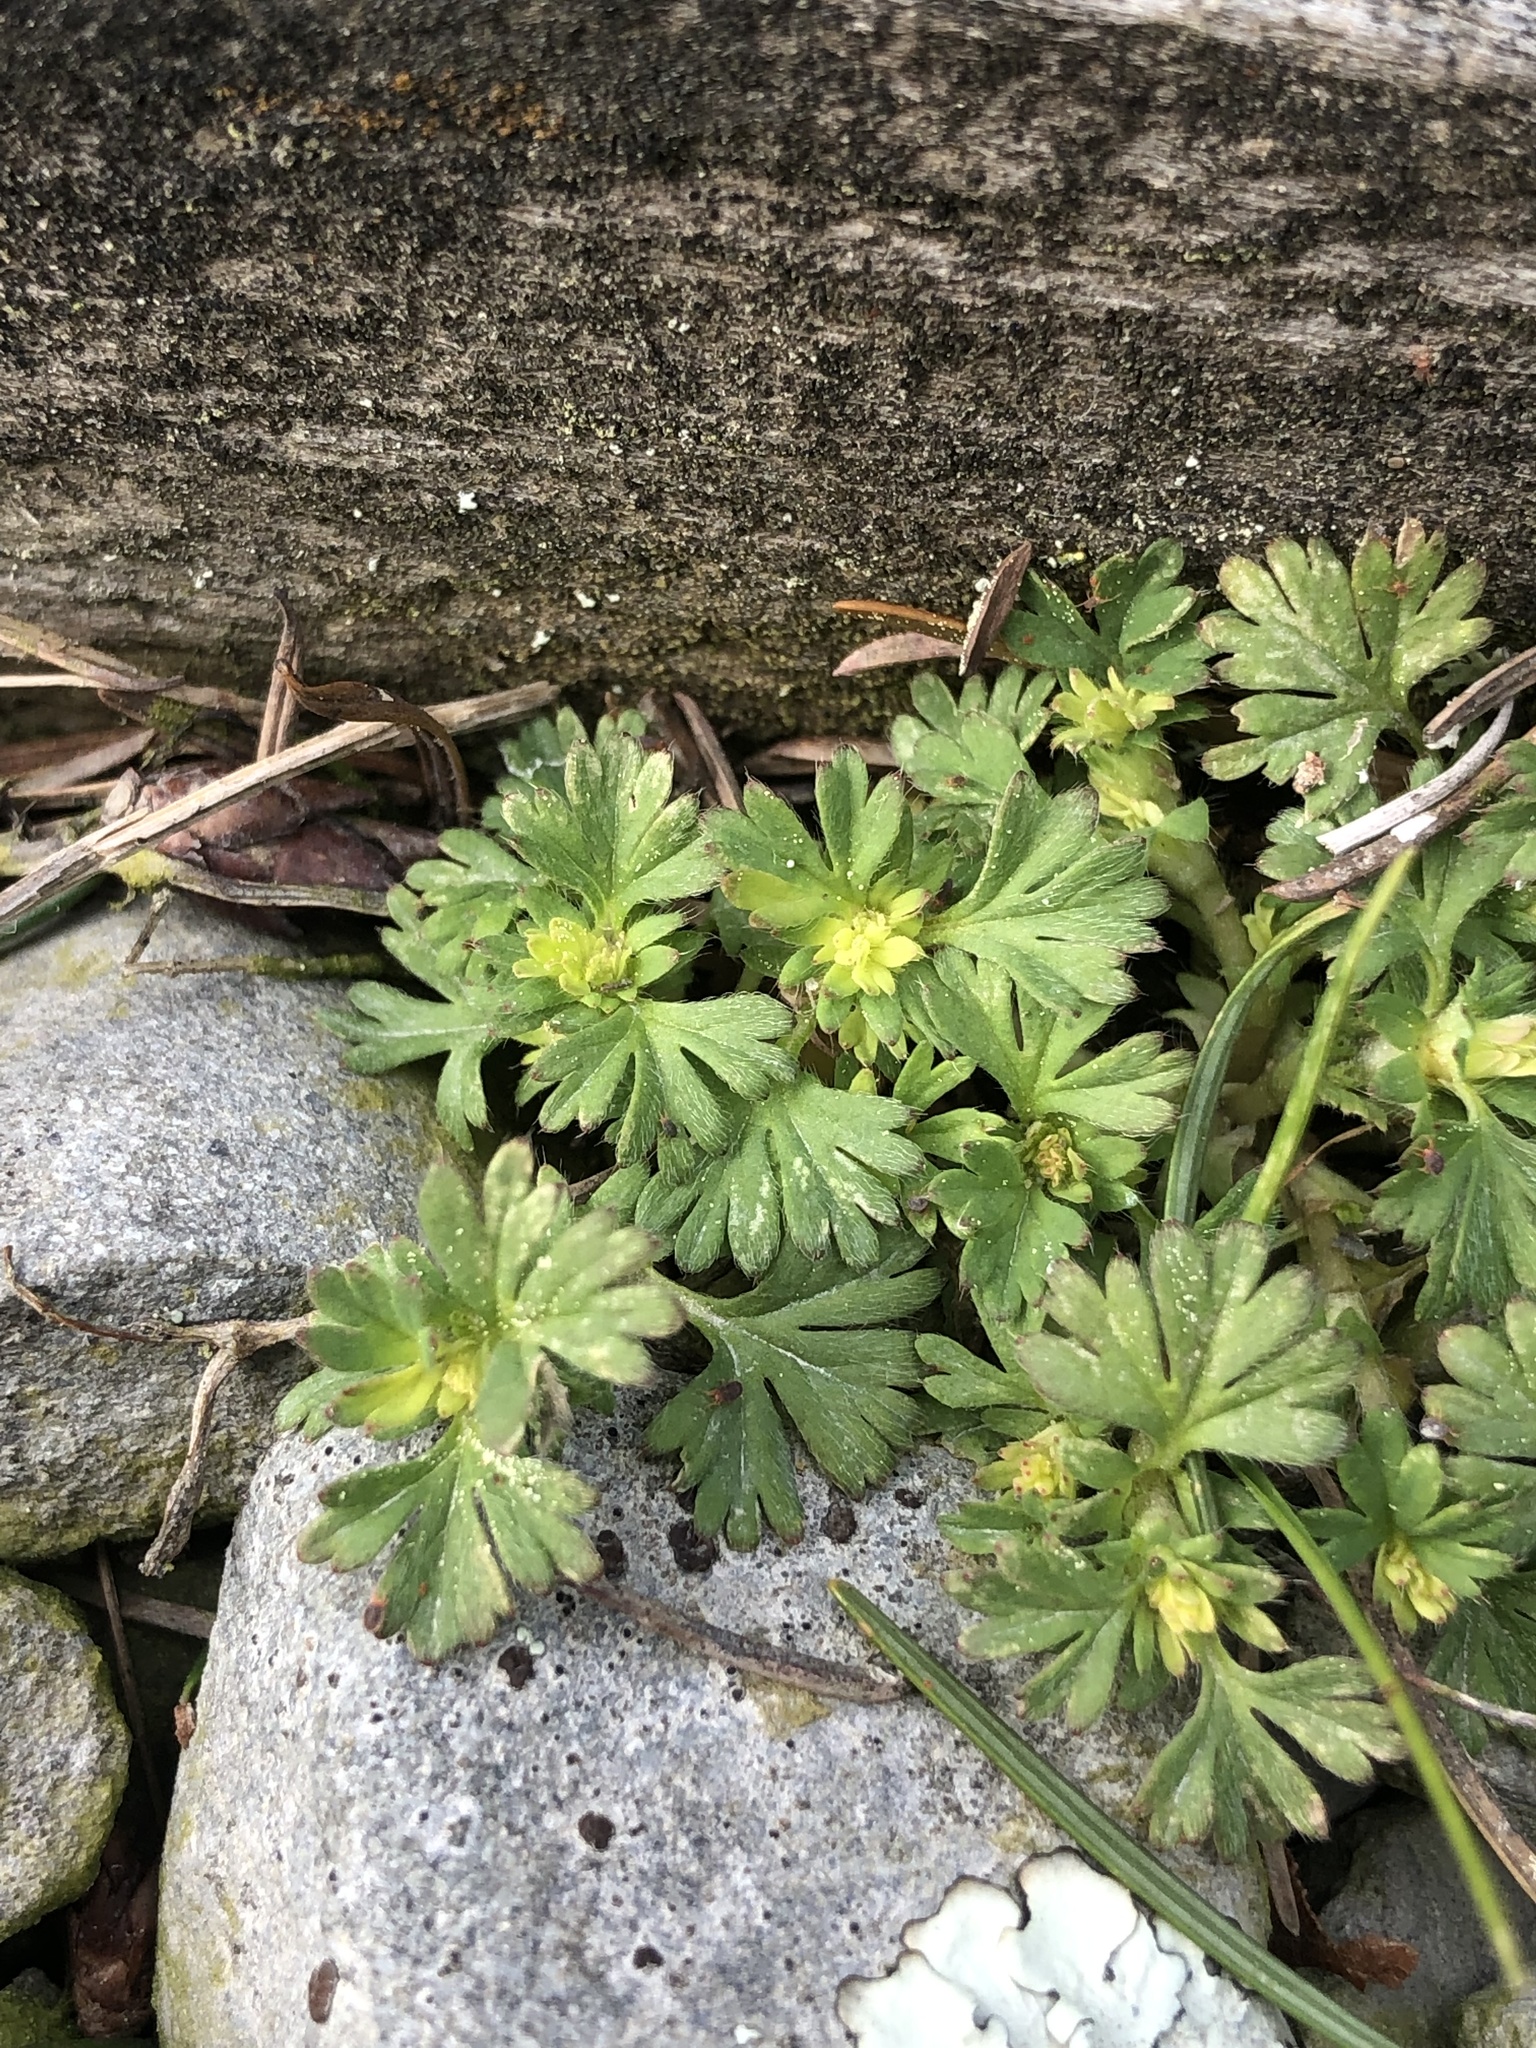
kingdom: Plantae
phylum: Tracheophyta
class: Magnoliopsida
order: Rosales
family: Rosaceae
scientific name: Rosaceae
